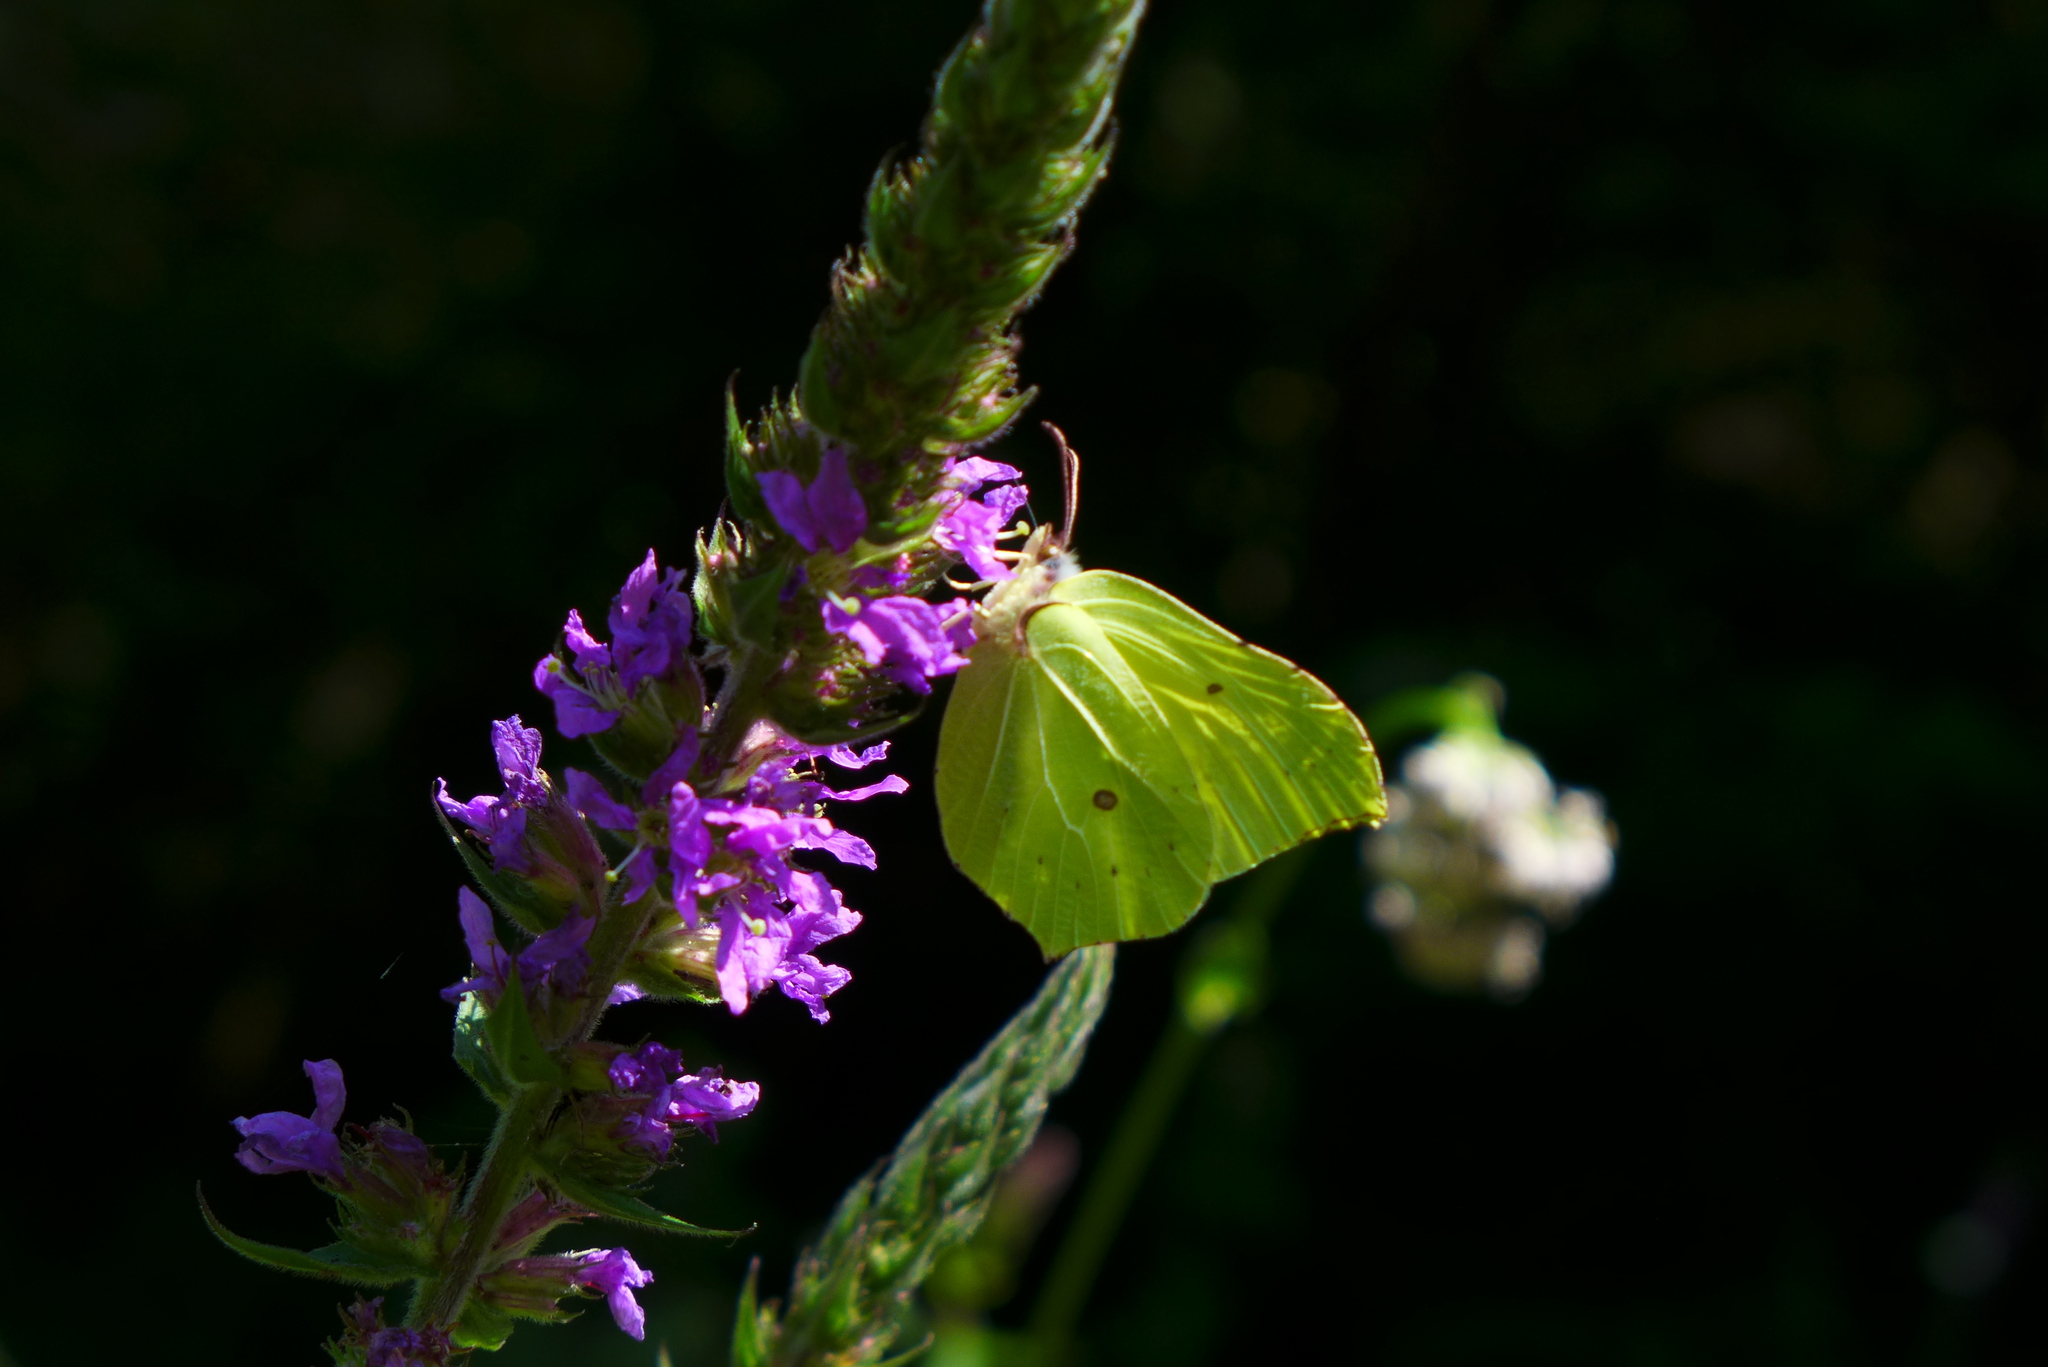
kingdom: Animalia
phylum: Arthropoda
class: Insecta
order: Lepidoptera
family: Pieridae
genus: Gonepteryx
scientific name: Gonepteryx rhamni
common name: Brimstone
